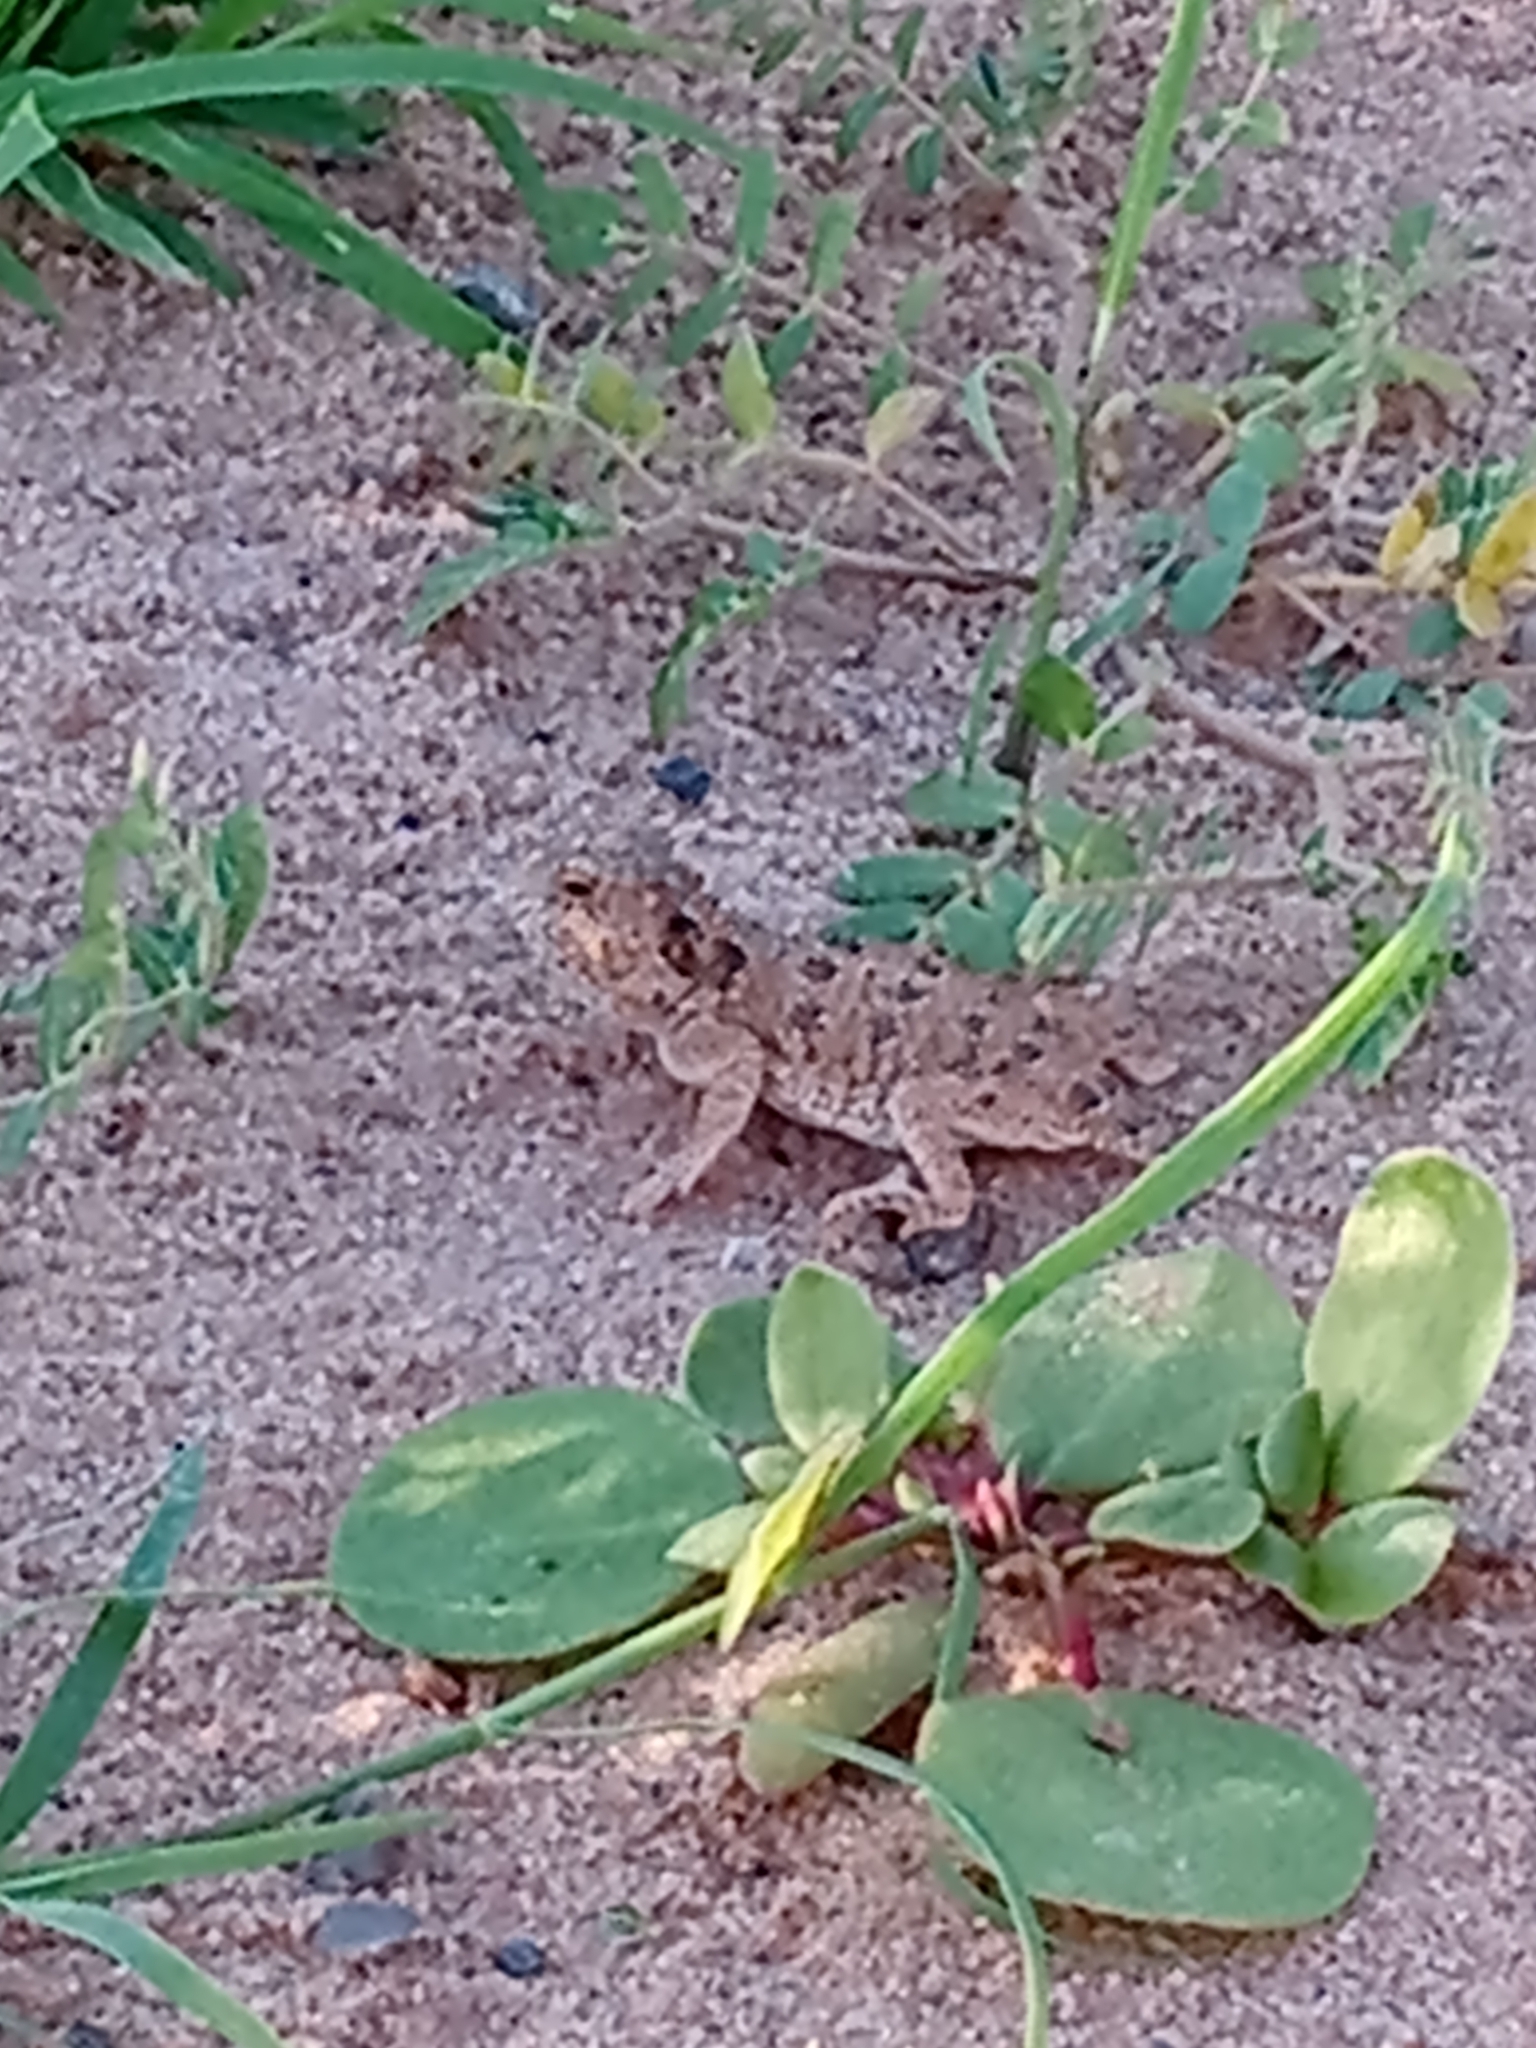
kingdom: Animalia
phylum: Chordata
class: Squamata
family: Phrynosomatidae
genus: Phrynosoma
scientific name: Phrynosoma hernandesi
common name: Greater short-horned lizard
